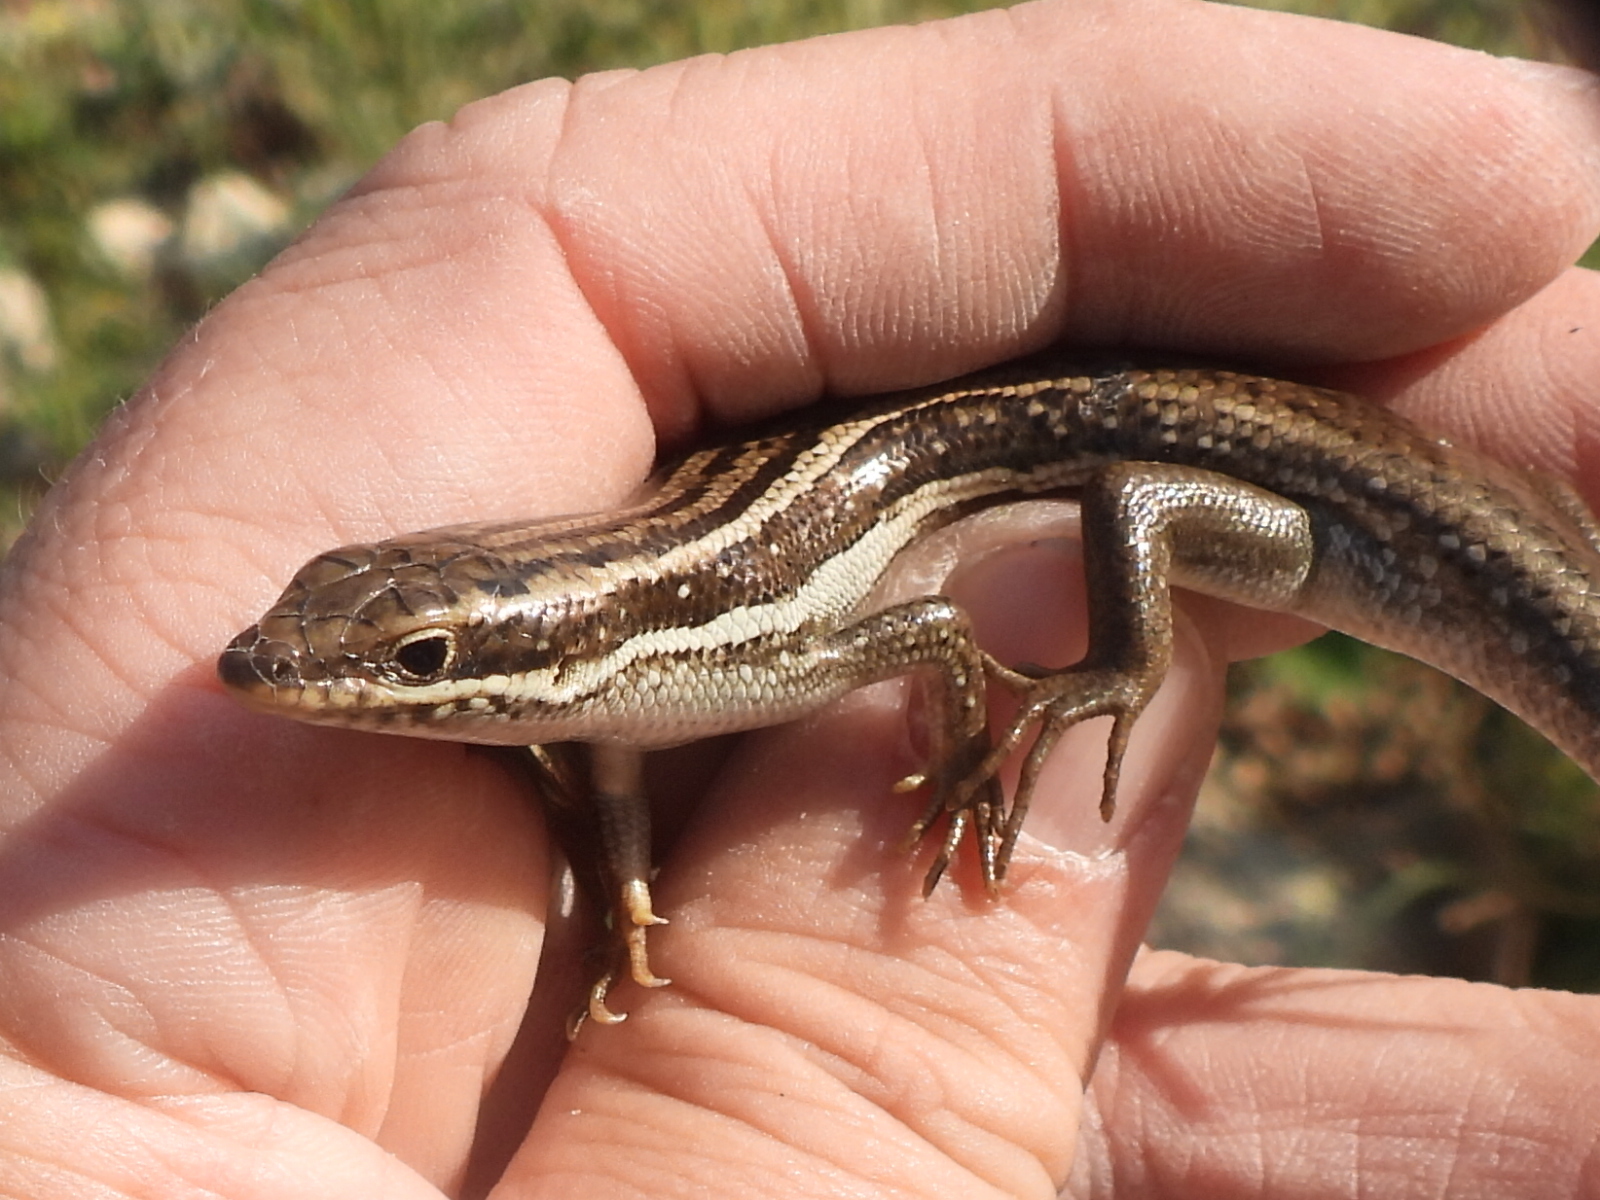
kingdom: Animalia
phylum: Chordata
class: Squamata
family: Scincidae
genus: Heremites
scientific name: Heremites septemtaeniatus
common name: Golden grass mabuya
